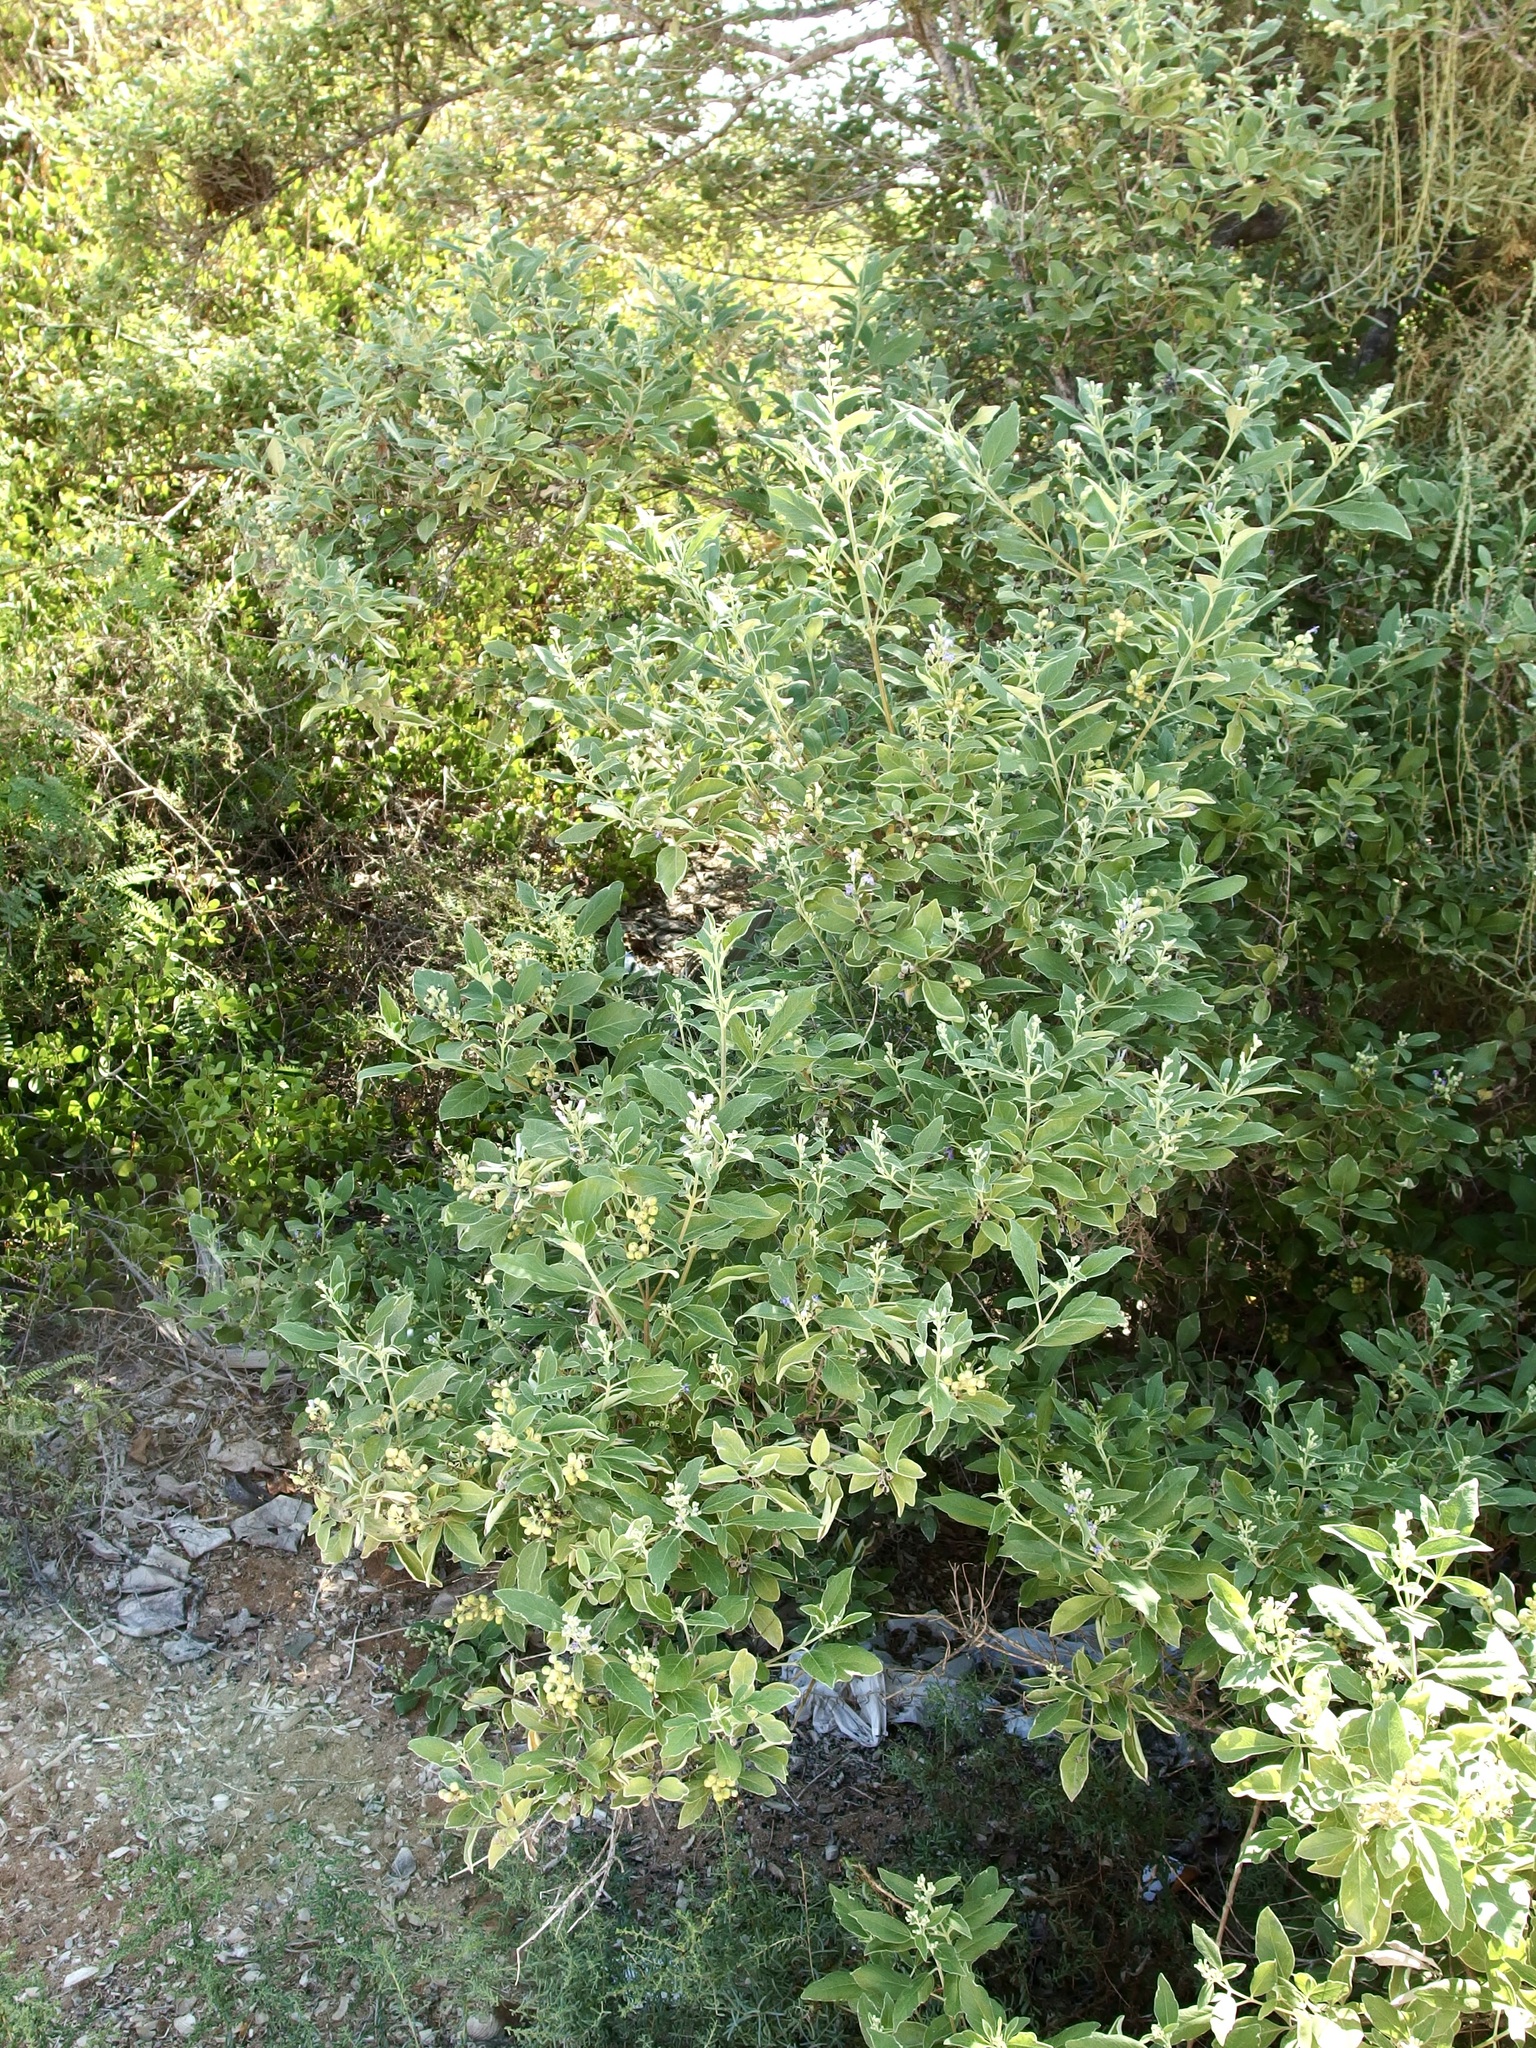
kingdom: Plantae
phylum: Tracheophyta
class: Magnoliopsida
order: Lamiales
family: Lamiaceae
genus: Vitex
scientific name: Vitex trifolia
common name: Simpleleaf chastetree
